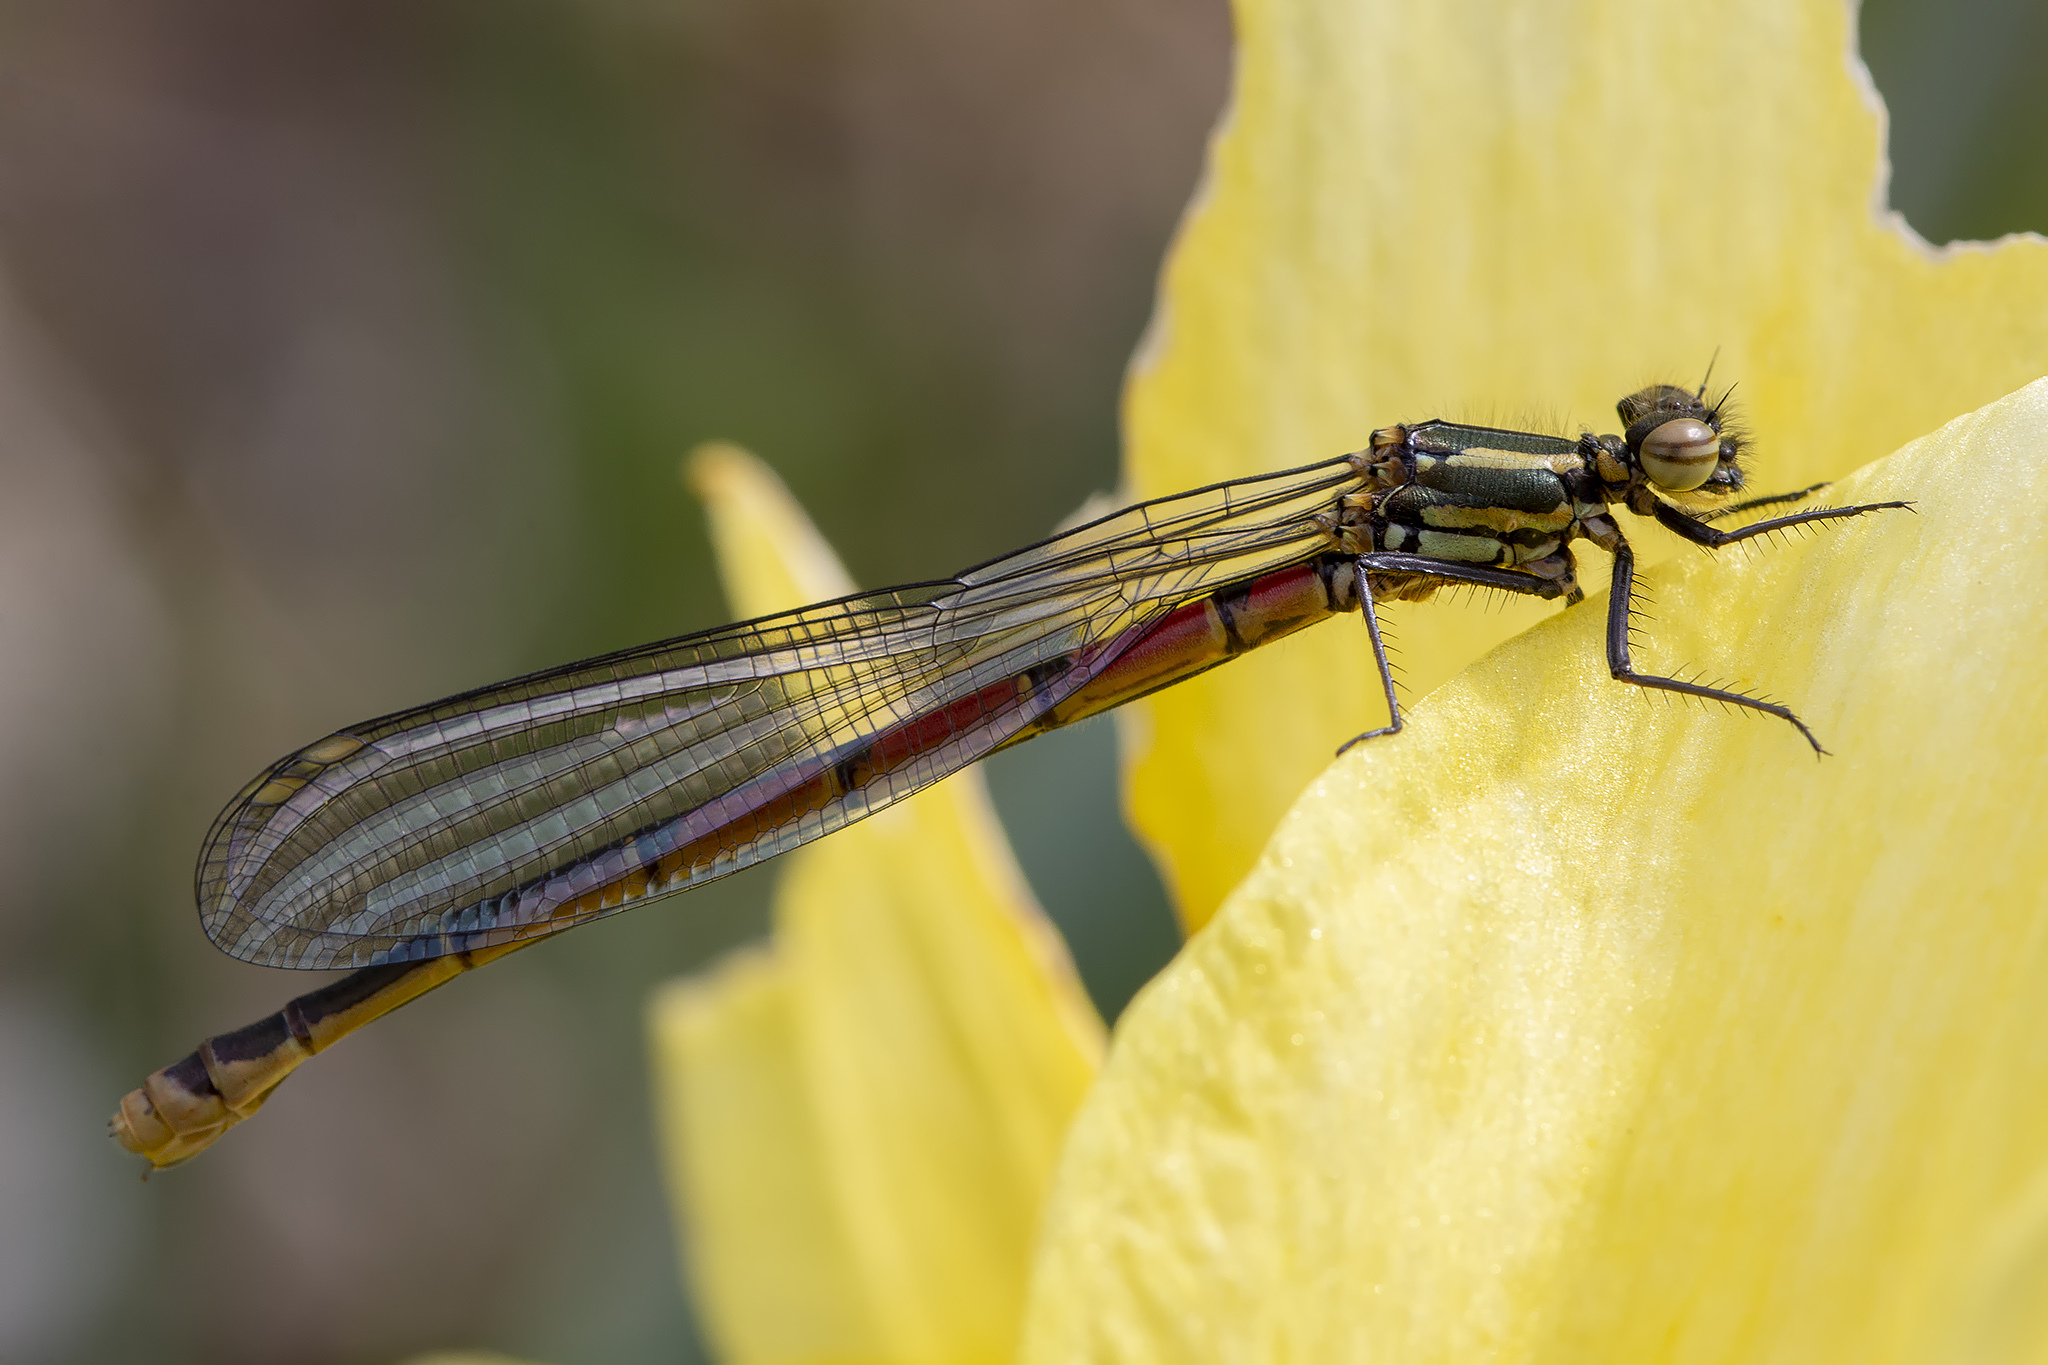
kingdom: Animalia
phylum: Arthropoda
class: Insecta
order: Odonata
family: Coenagrionidae
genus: Pyrrhosoma
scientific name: Pyrrhosoma nymphula
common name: Large red damsel
